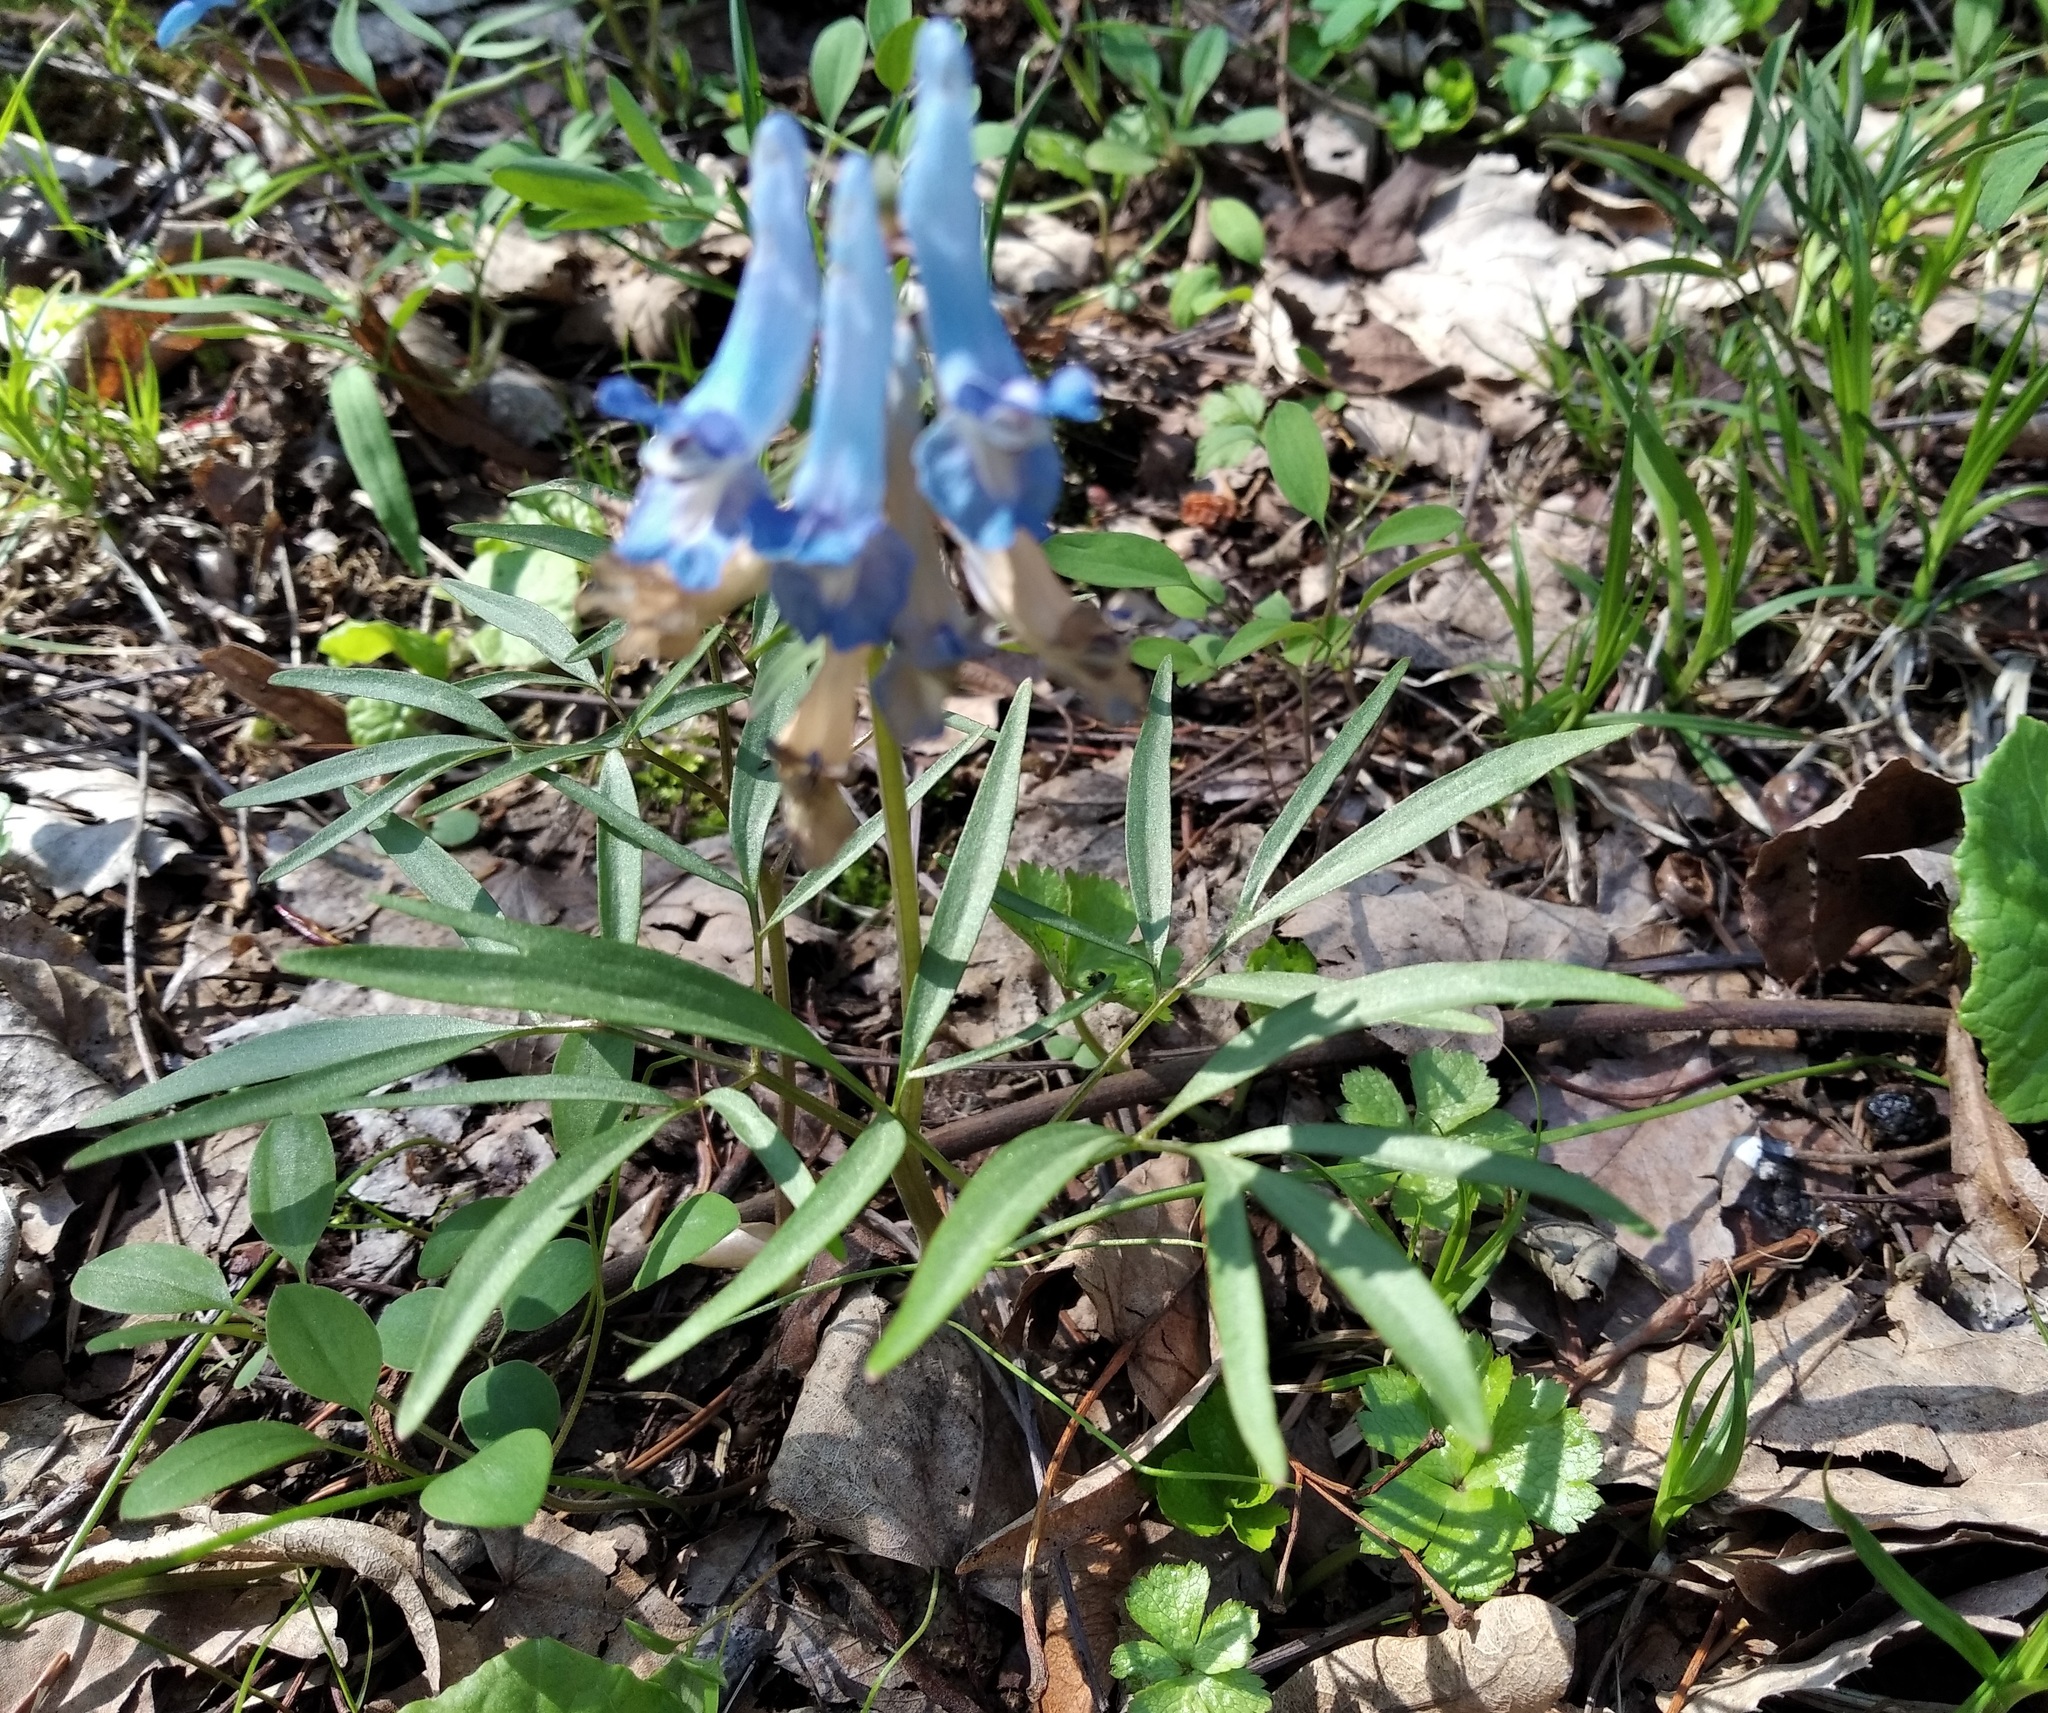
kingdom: Plantae
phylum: Tracheophyta
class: Magnoliopsida
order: Ranunculales
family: Papaveraceae
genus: Corydalis
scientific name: Corydalis ambigua
